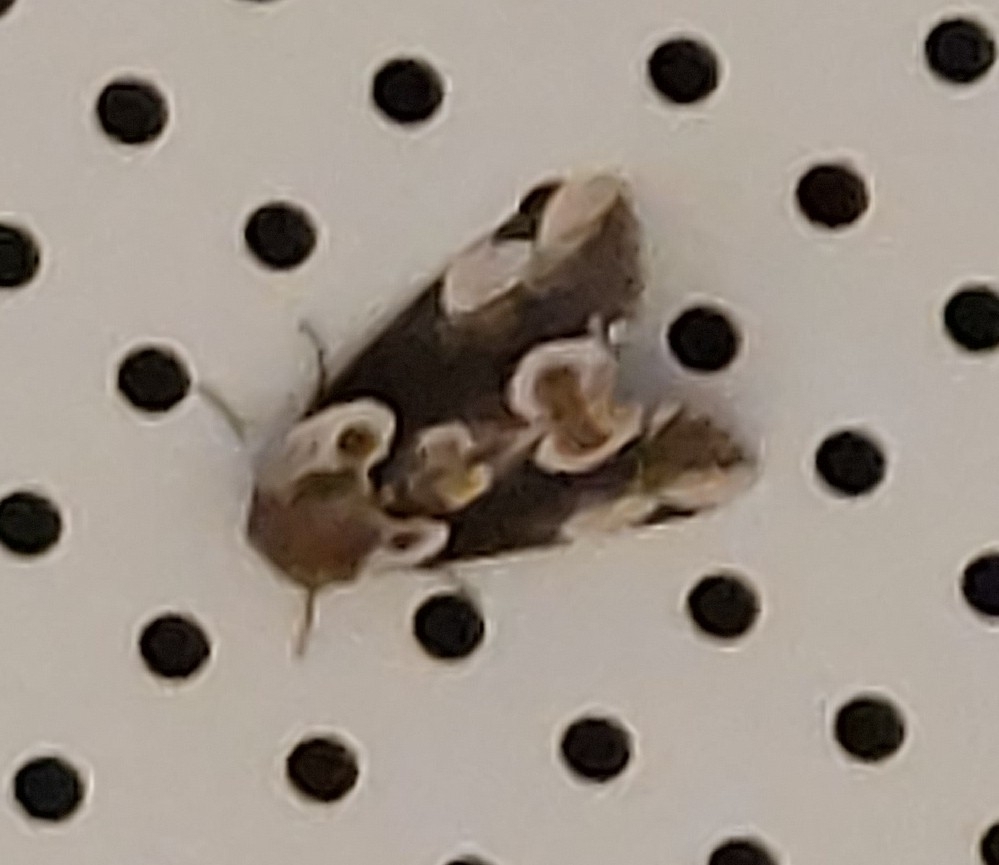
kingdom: Animalia
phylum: Arthropoda
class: Insecta
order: Lepidoptera
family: Drepanidae
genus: Thyatira
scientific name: Thyatira batis
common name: Peach blossom
